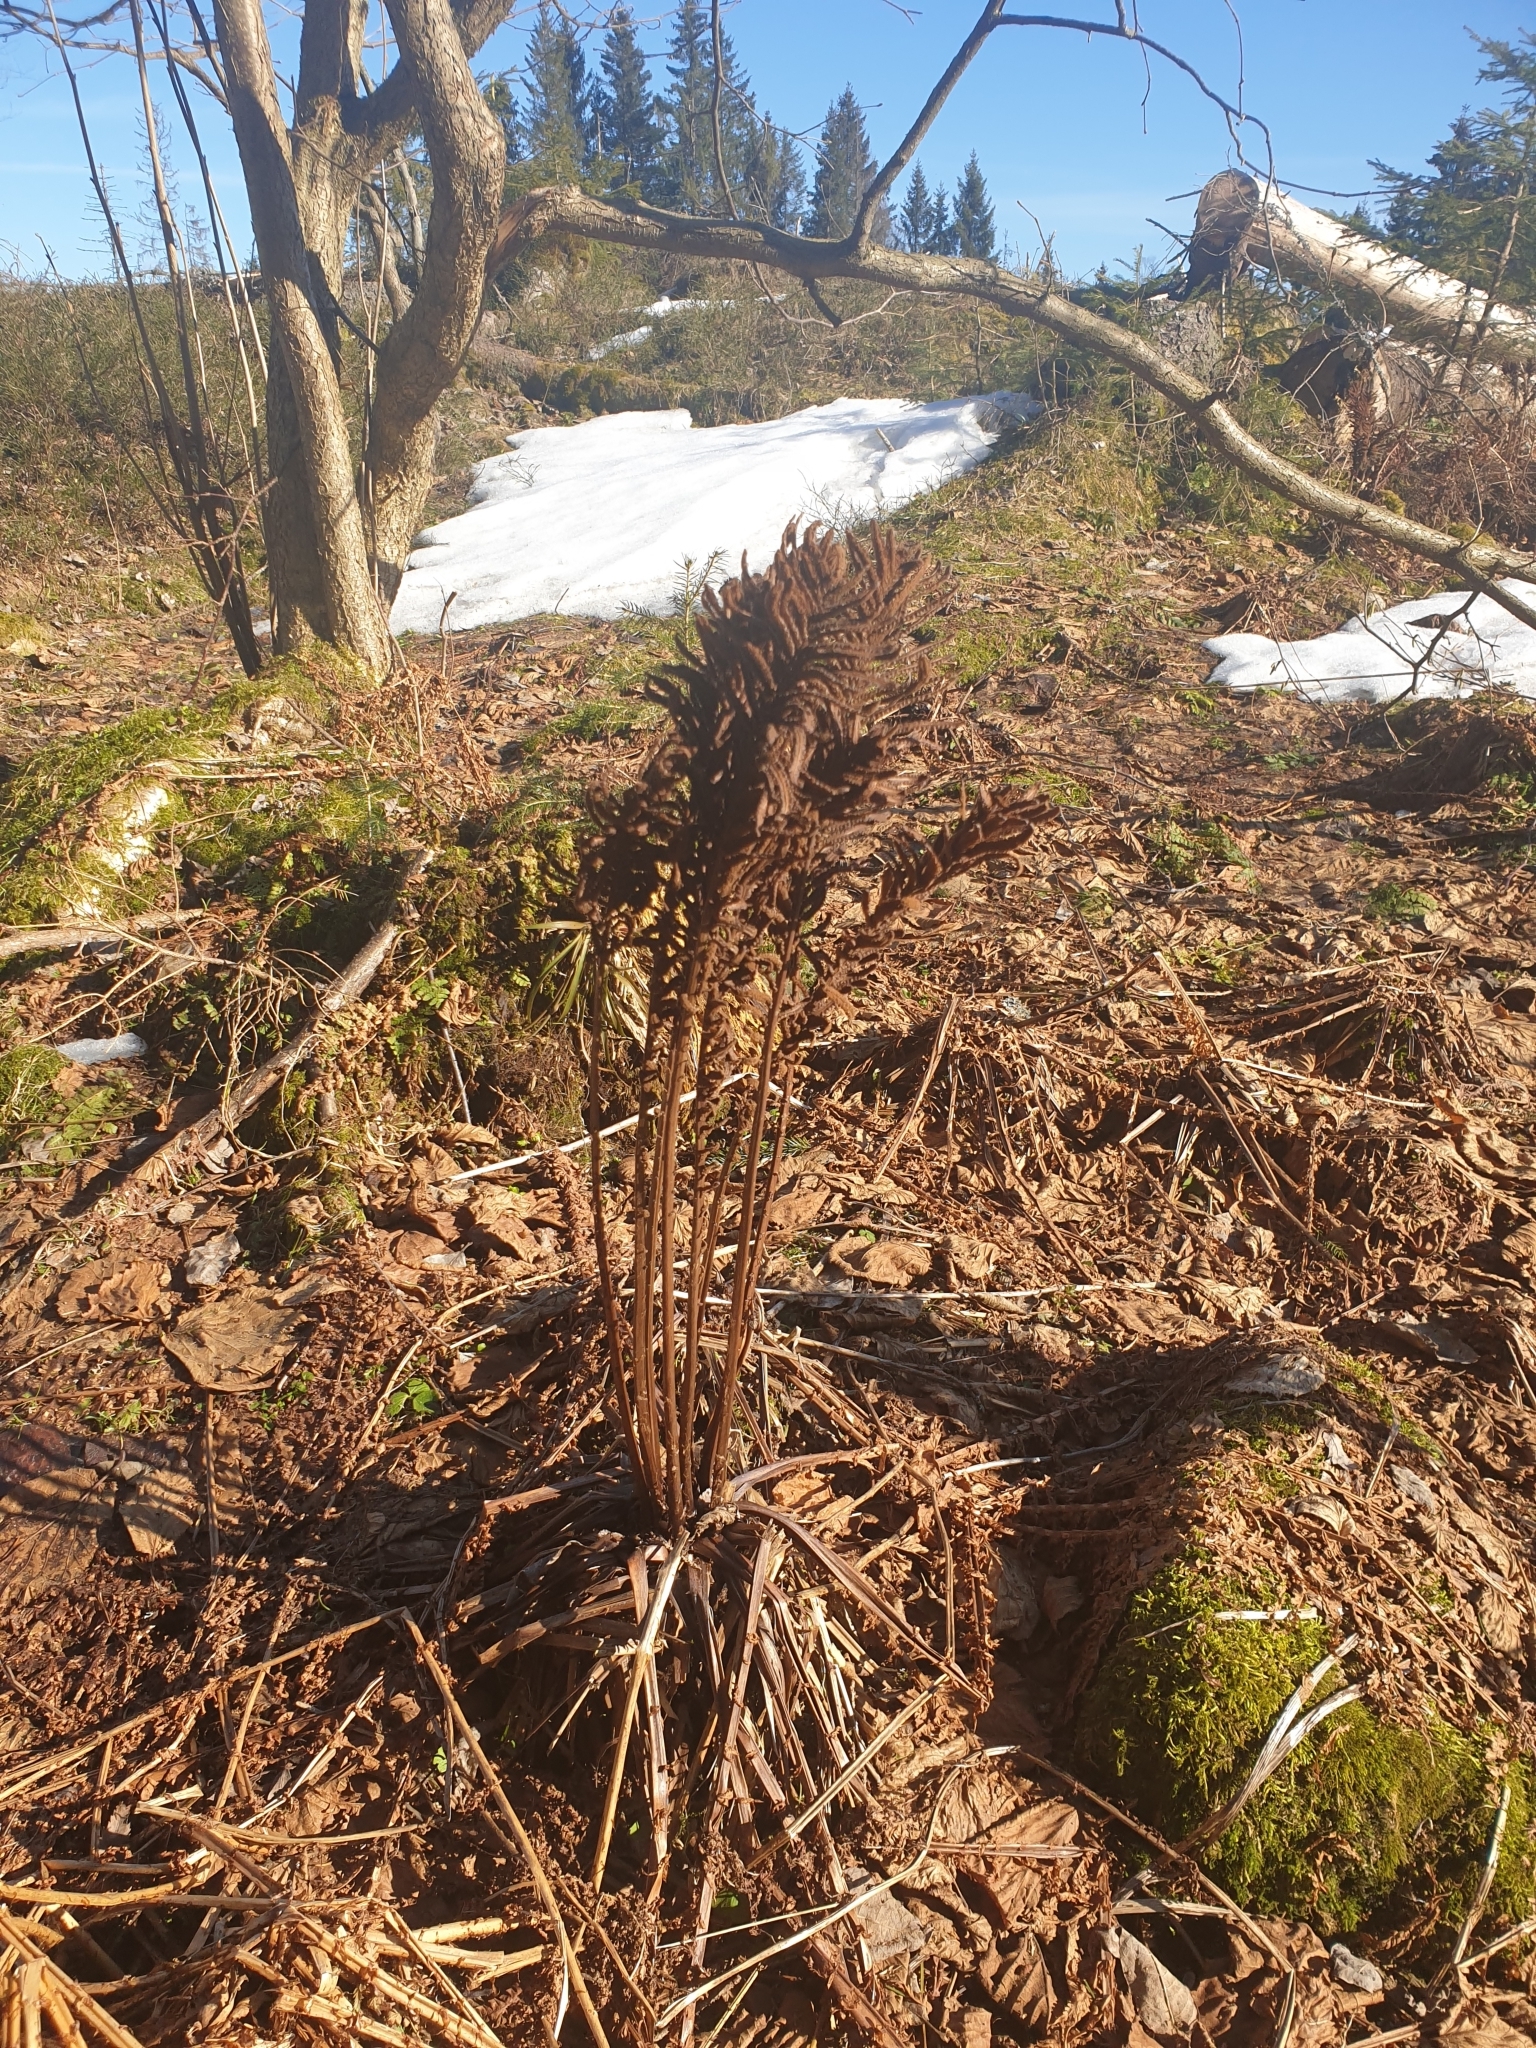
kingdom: Plantae
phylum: Tracheophyta
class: Polypodiopsida
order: Polypodiales
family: Onocleaceae
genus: Matteuccia
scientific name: Matteuccia struthiopteris
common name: Ostrich fern
